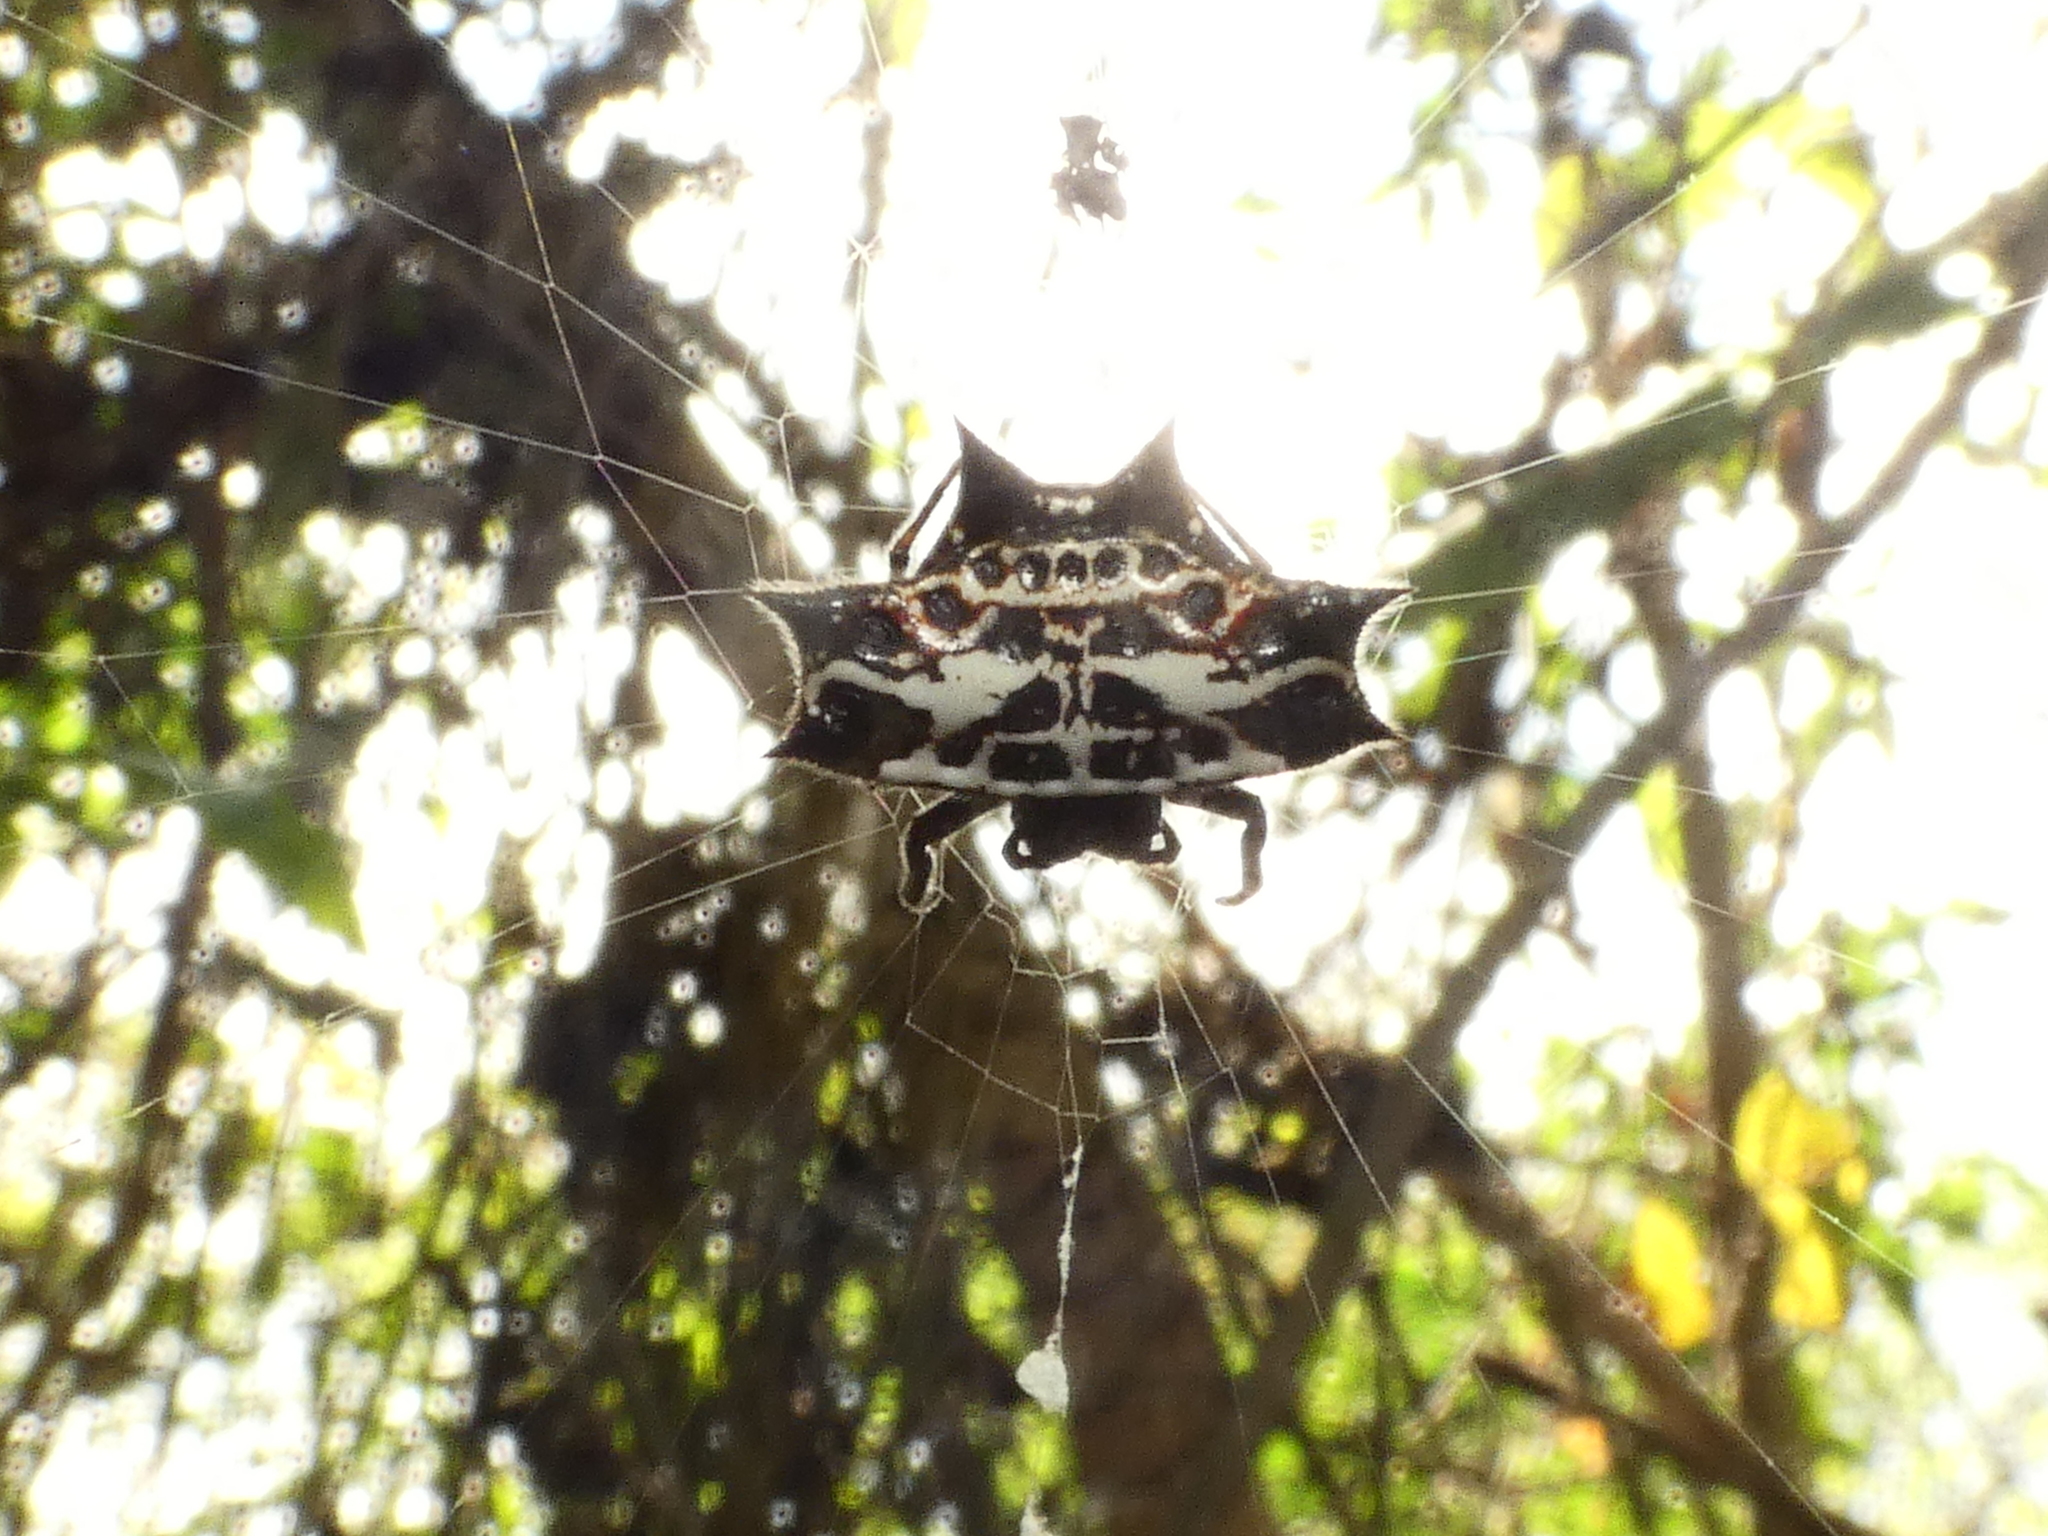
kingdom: Animalia
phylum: Arthropoda
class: Arachnida
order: Araneae
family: Araneidae
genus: Gasteracantha
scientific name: Gasteracantha cancriformis
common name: Orb weavers
